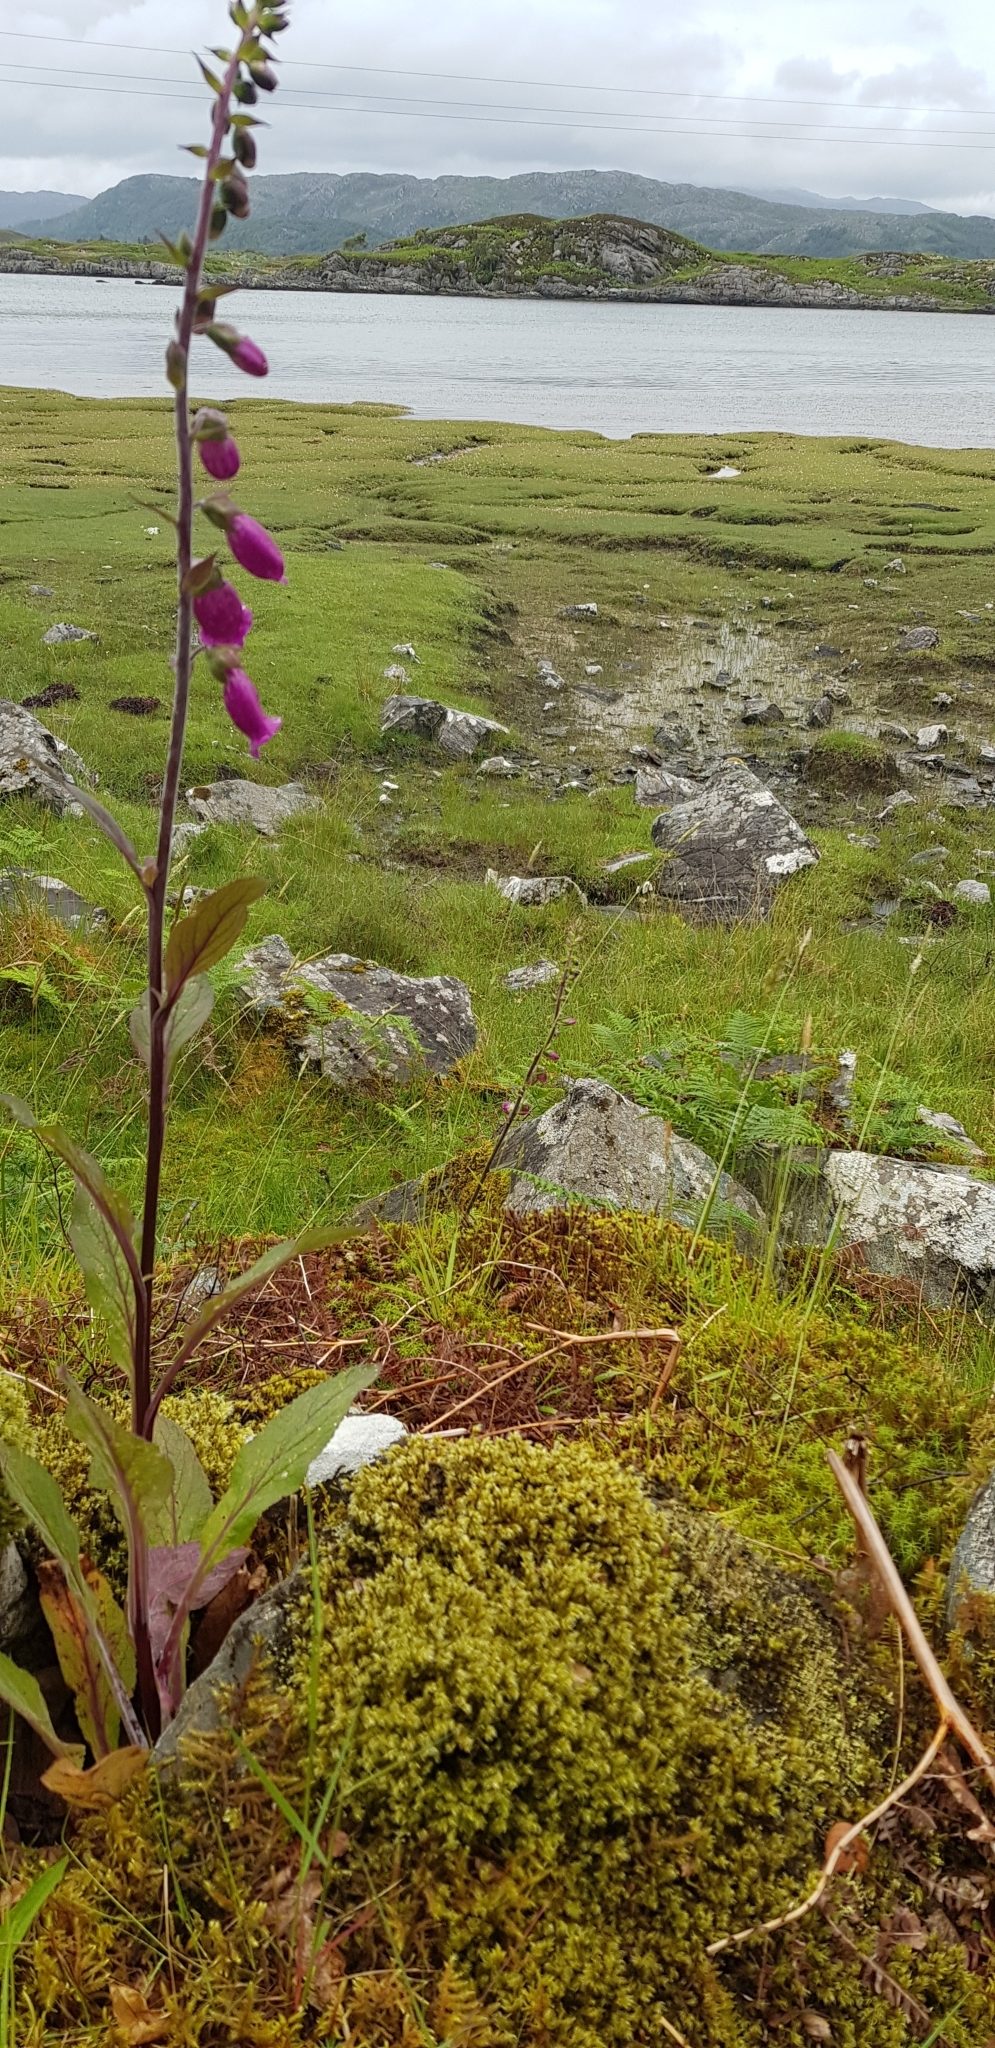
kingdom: Plantae
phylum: Bryophyta
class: Bryopsida
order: Grimmiales
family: Grimmiaceae
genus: Racomitrium
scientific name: Racomitrium lanuginosum
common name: Hoary rock moss
